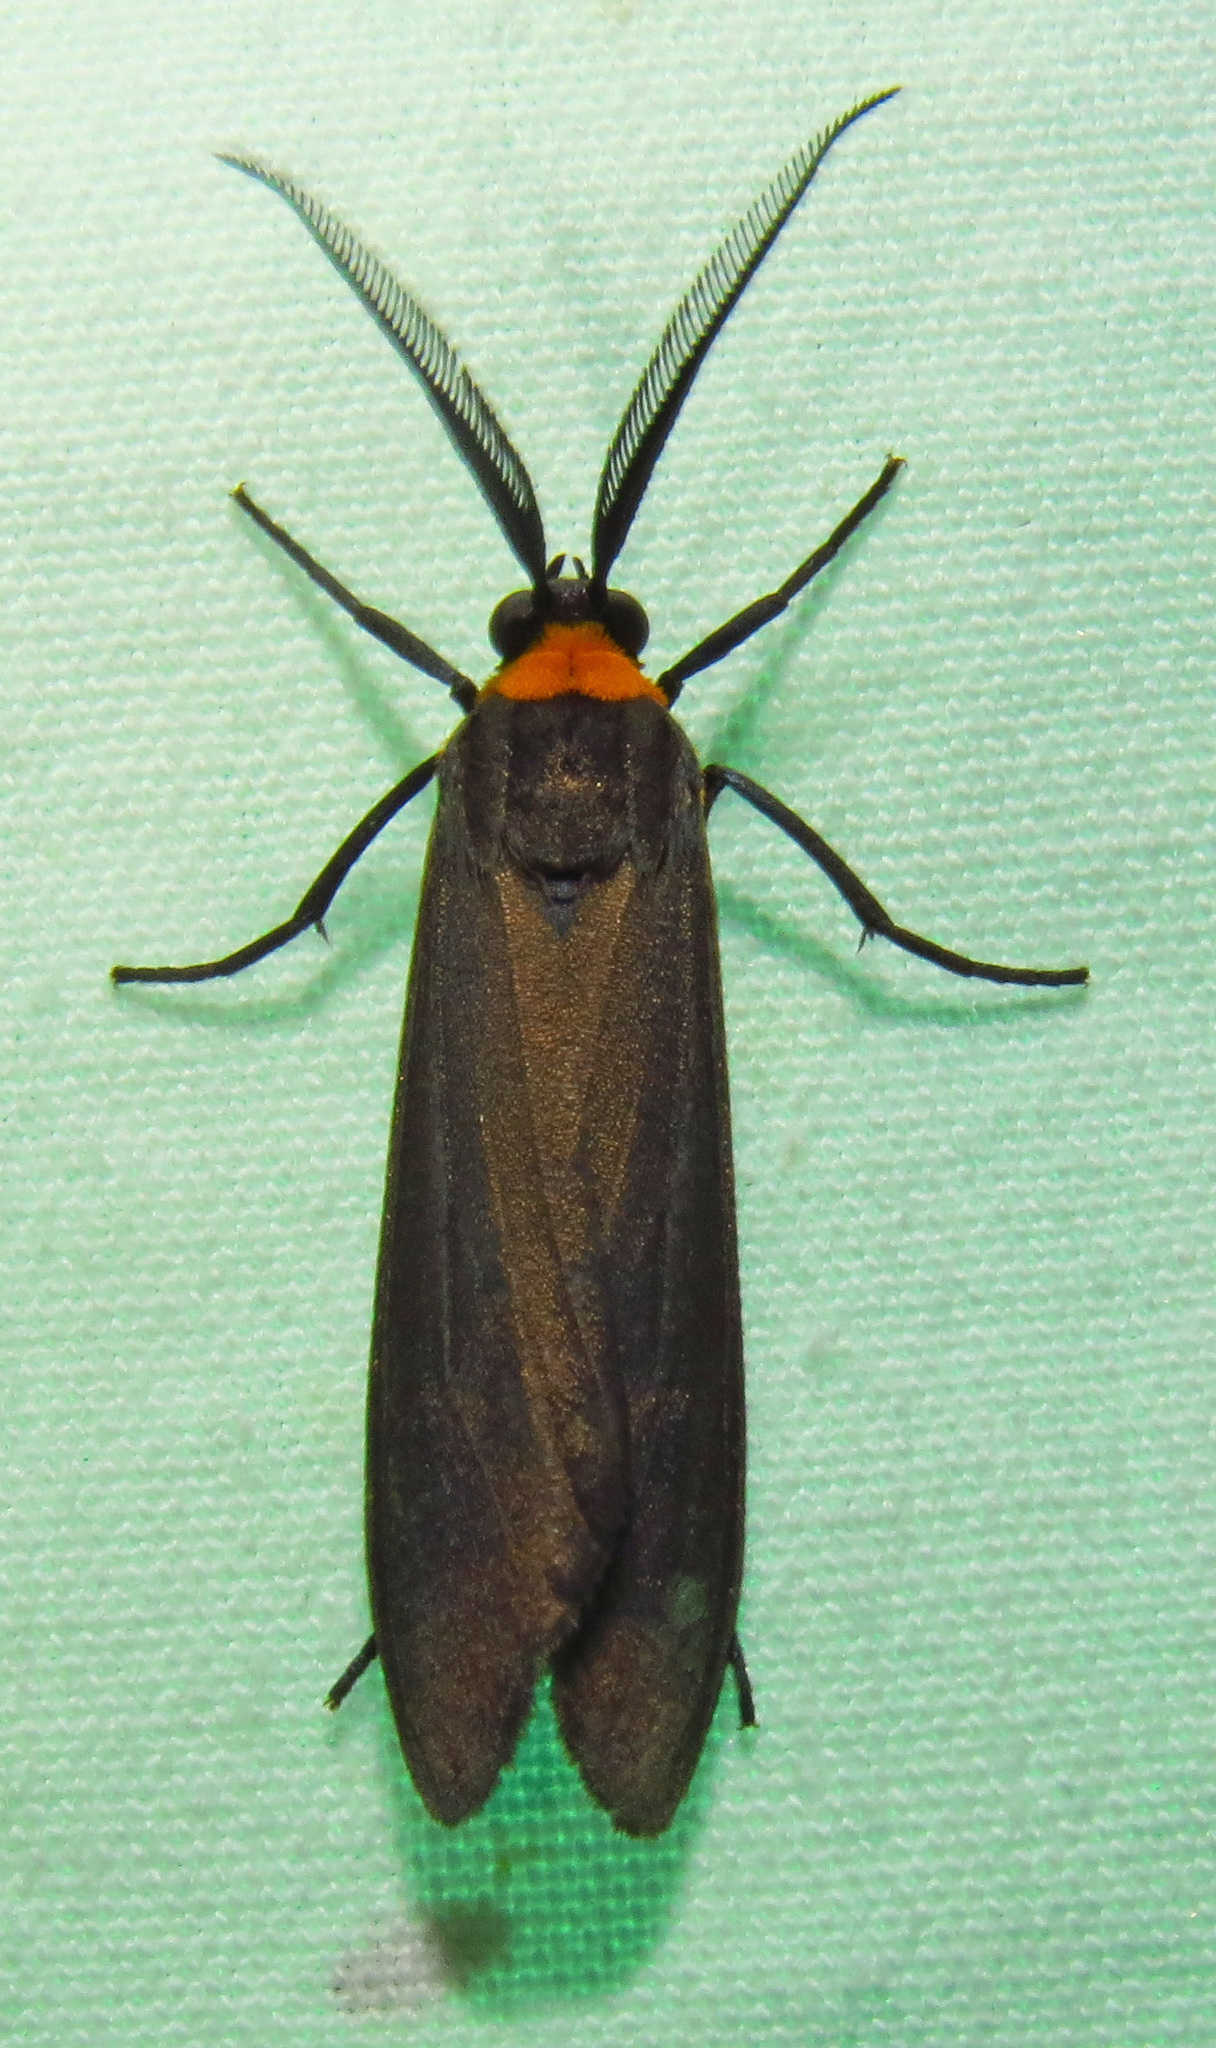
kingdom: Animalia
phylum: Arthropoda
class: Insecta
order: Lepidoptera
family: Erebidae
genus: Cisseps
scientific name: Cisseps fulvicollis
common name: Yellow-collared scape moth
